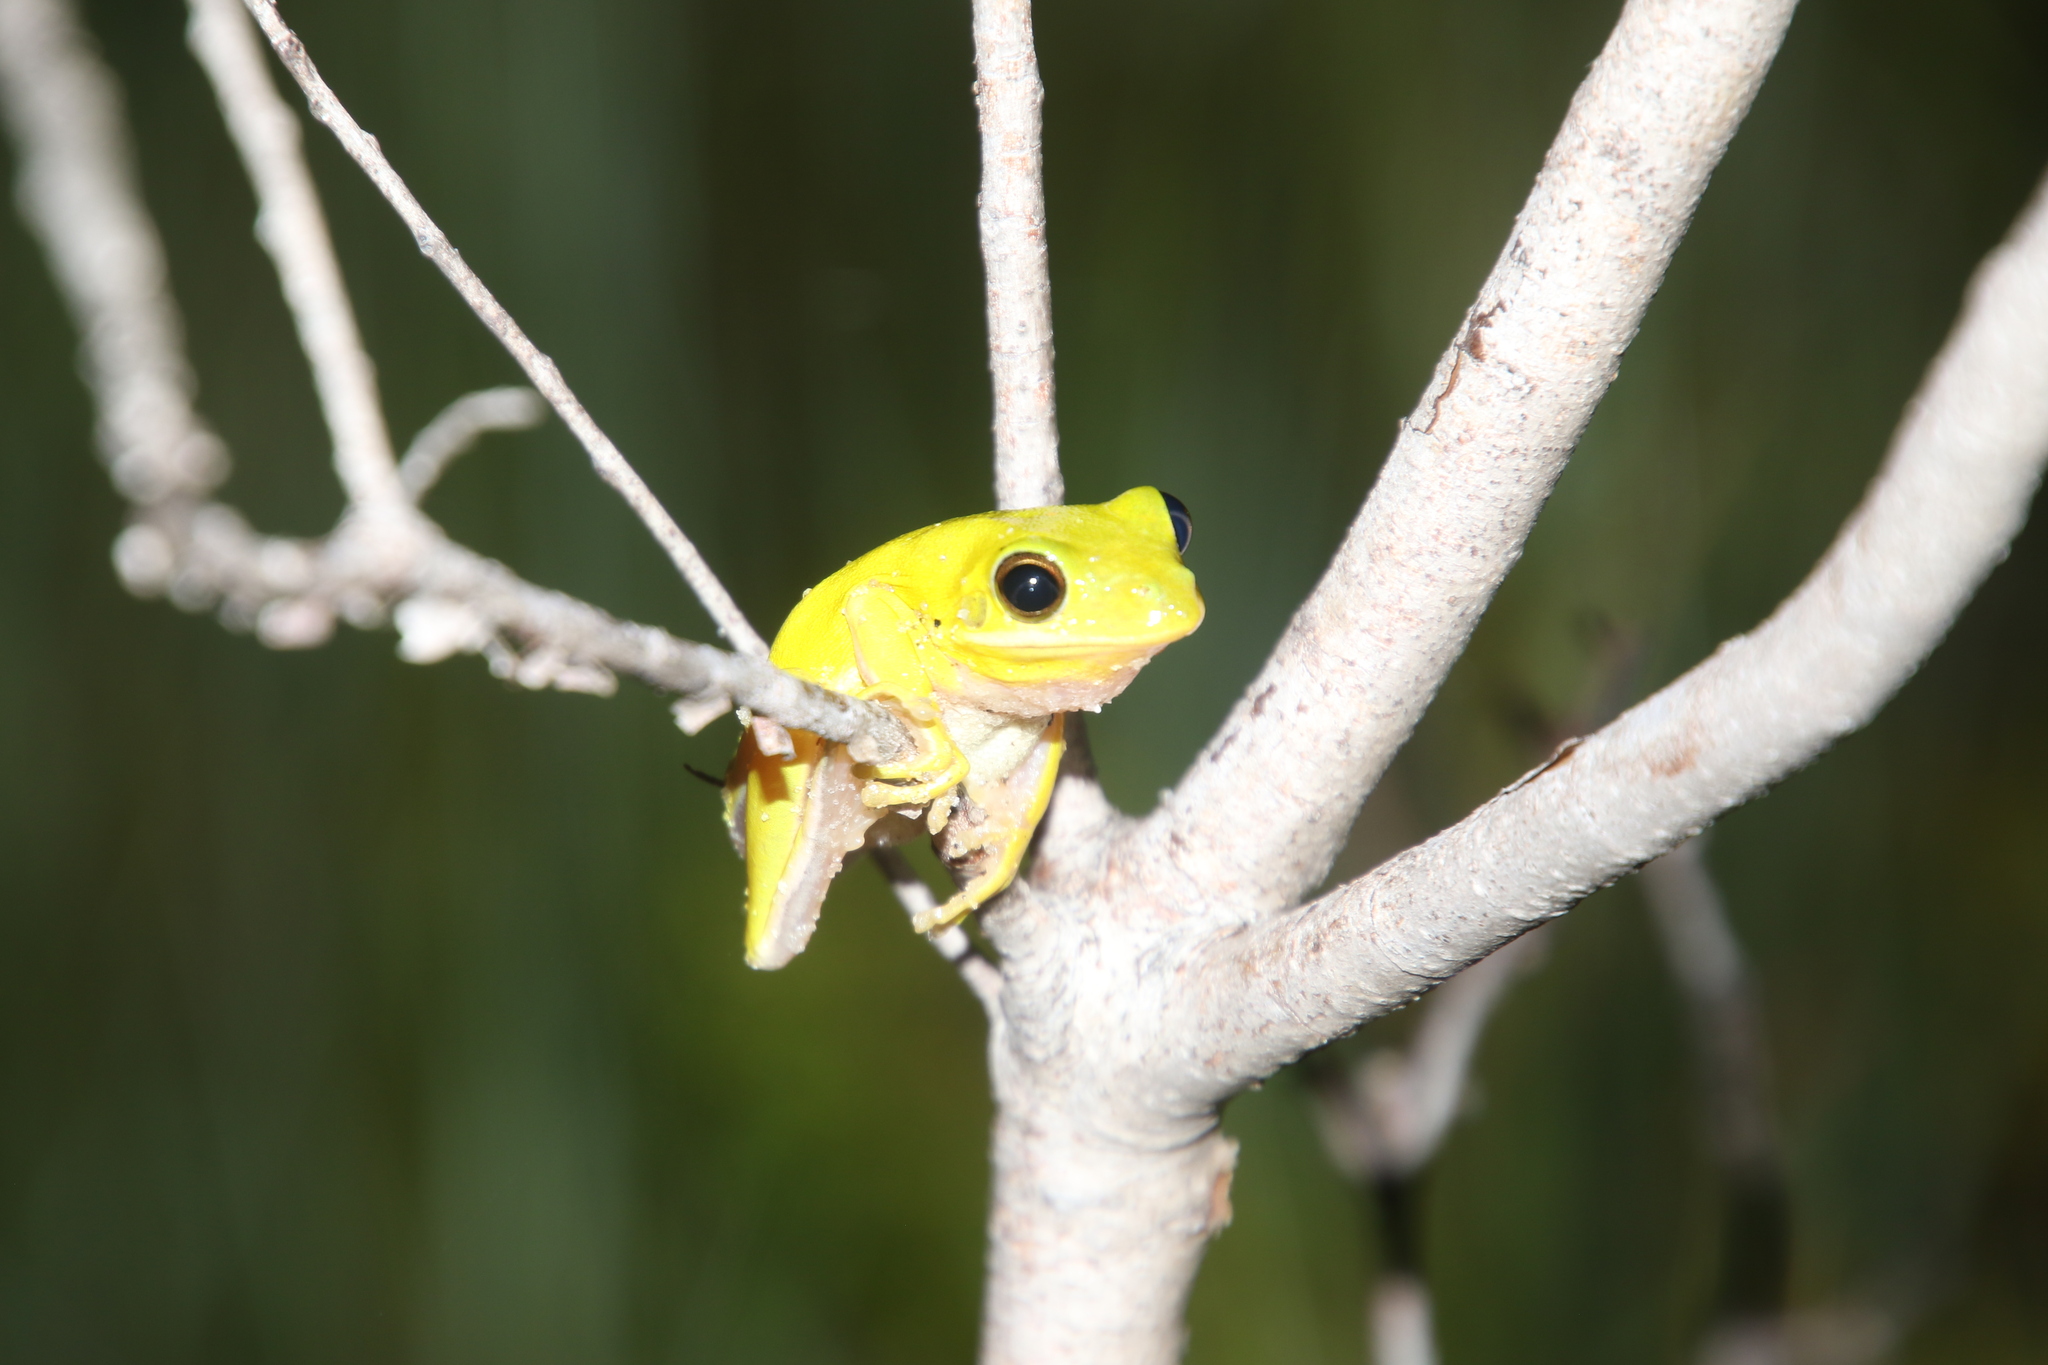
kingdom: Animalia
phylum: Chordata
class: Amphibia
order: Anura
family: Hylidae
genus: Dryophytes
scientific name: Dryophytes squirellus
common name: Squirrel treefrog
